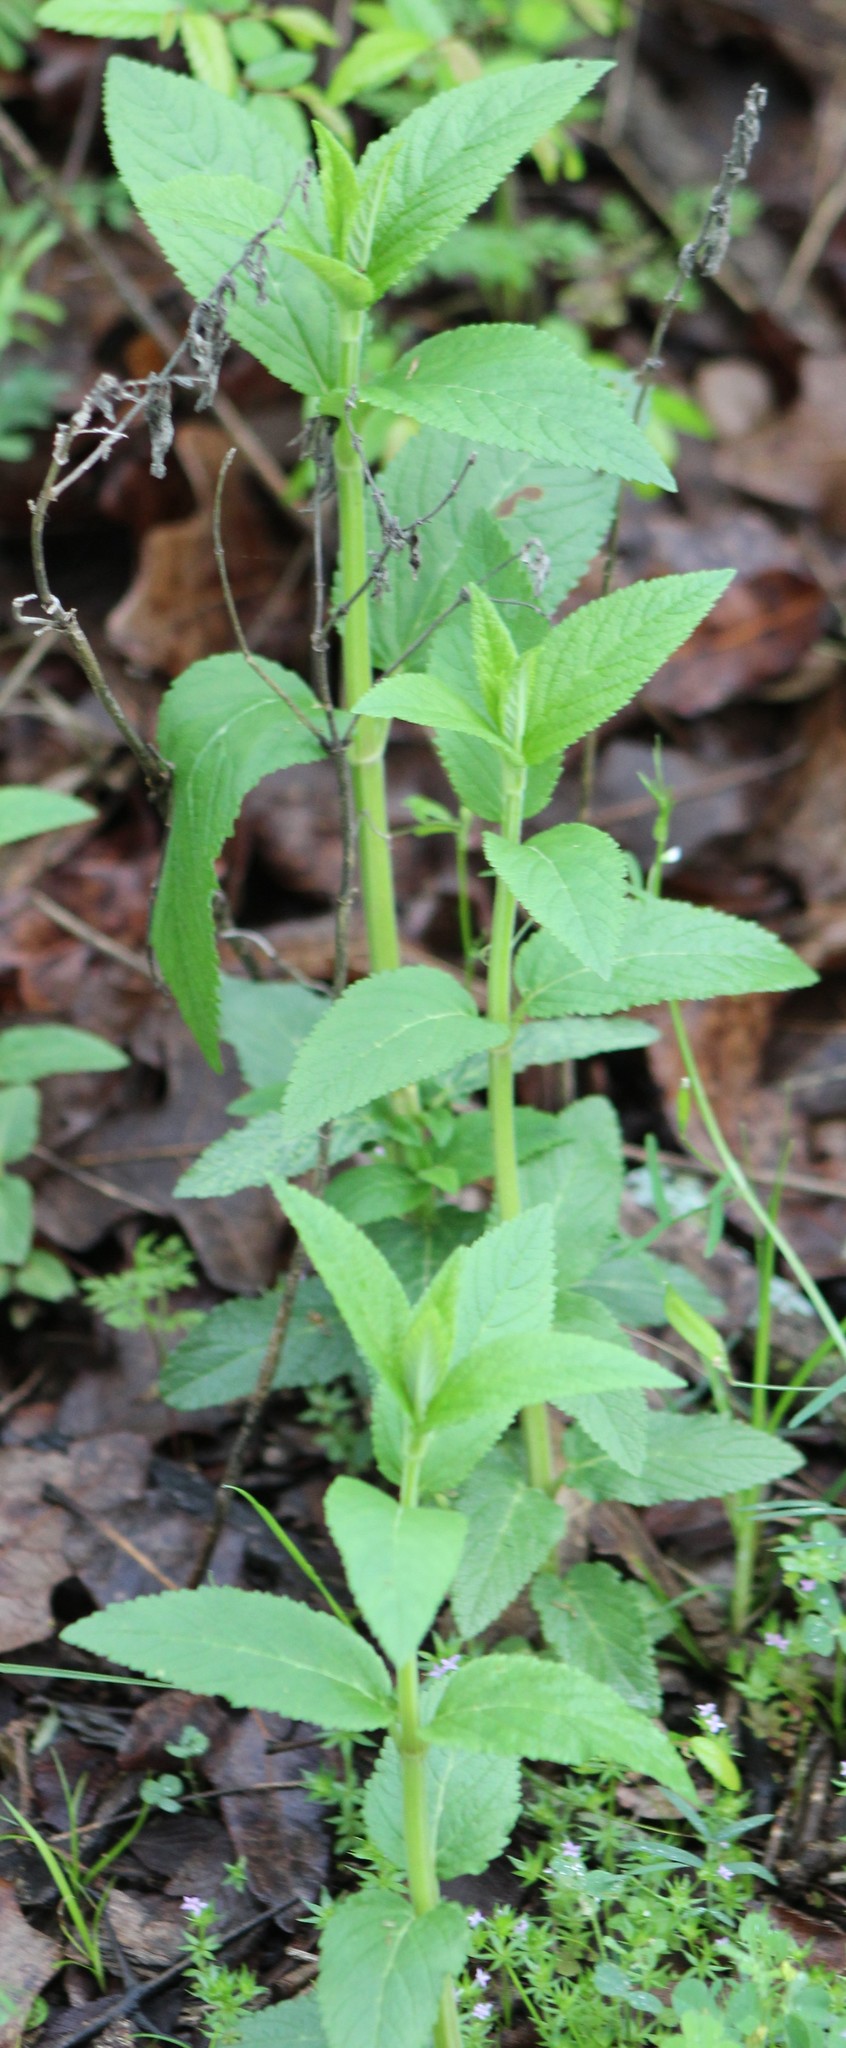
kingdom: Plantae
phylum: Tracheophyta
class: Magnoliopsida
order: Lamiales
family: Lamiaceae
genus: Teucrium
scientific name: Teucrium canadense
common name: American germander
